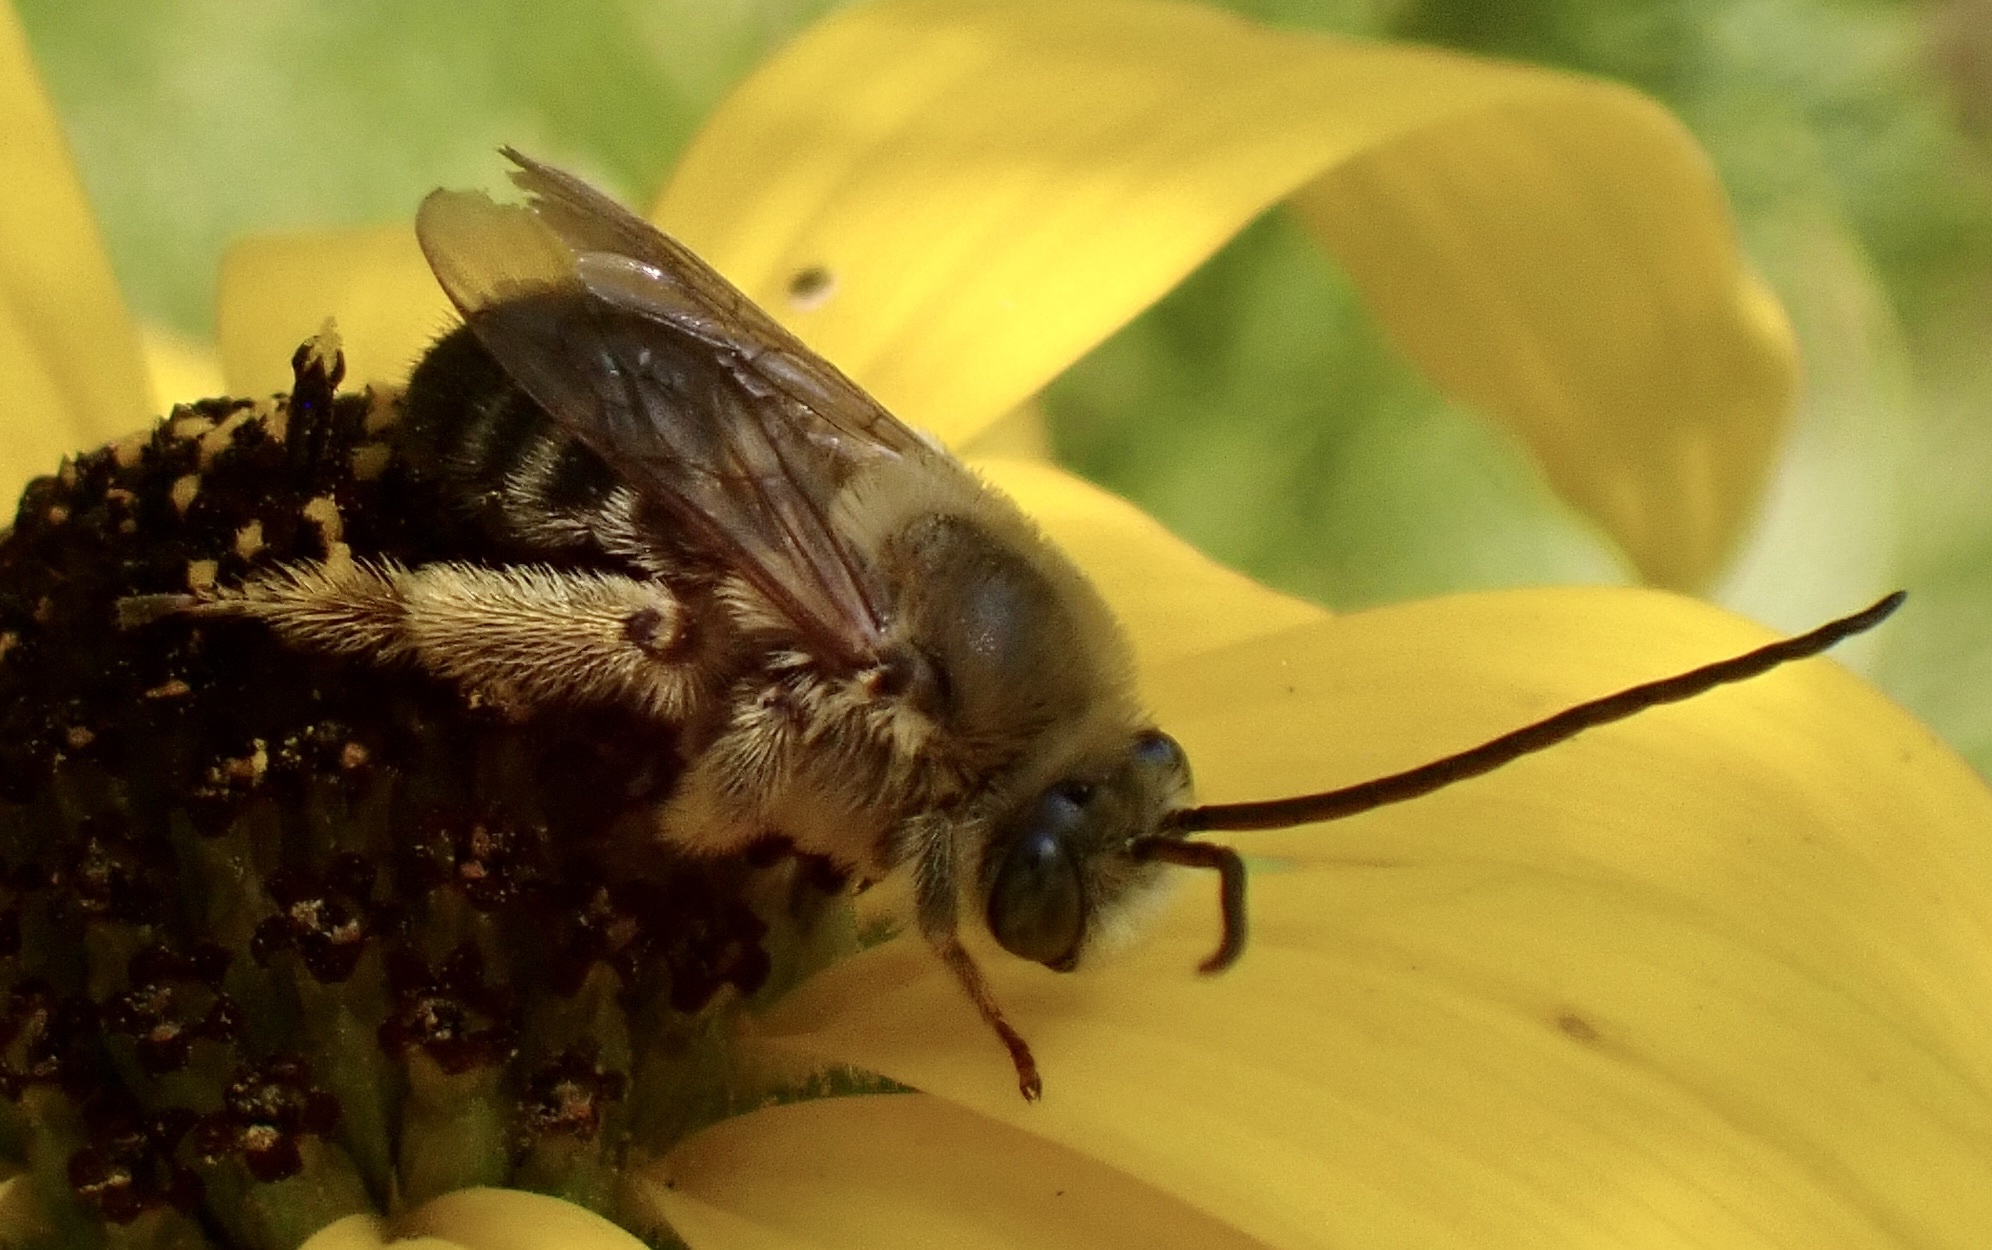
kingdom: Animalia
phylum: Arthropoda
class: Insecta
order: Hymenoptera
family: Apidae
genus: Melissodes
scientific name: Melissodes dentiventris
